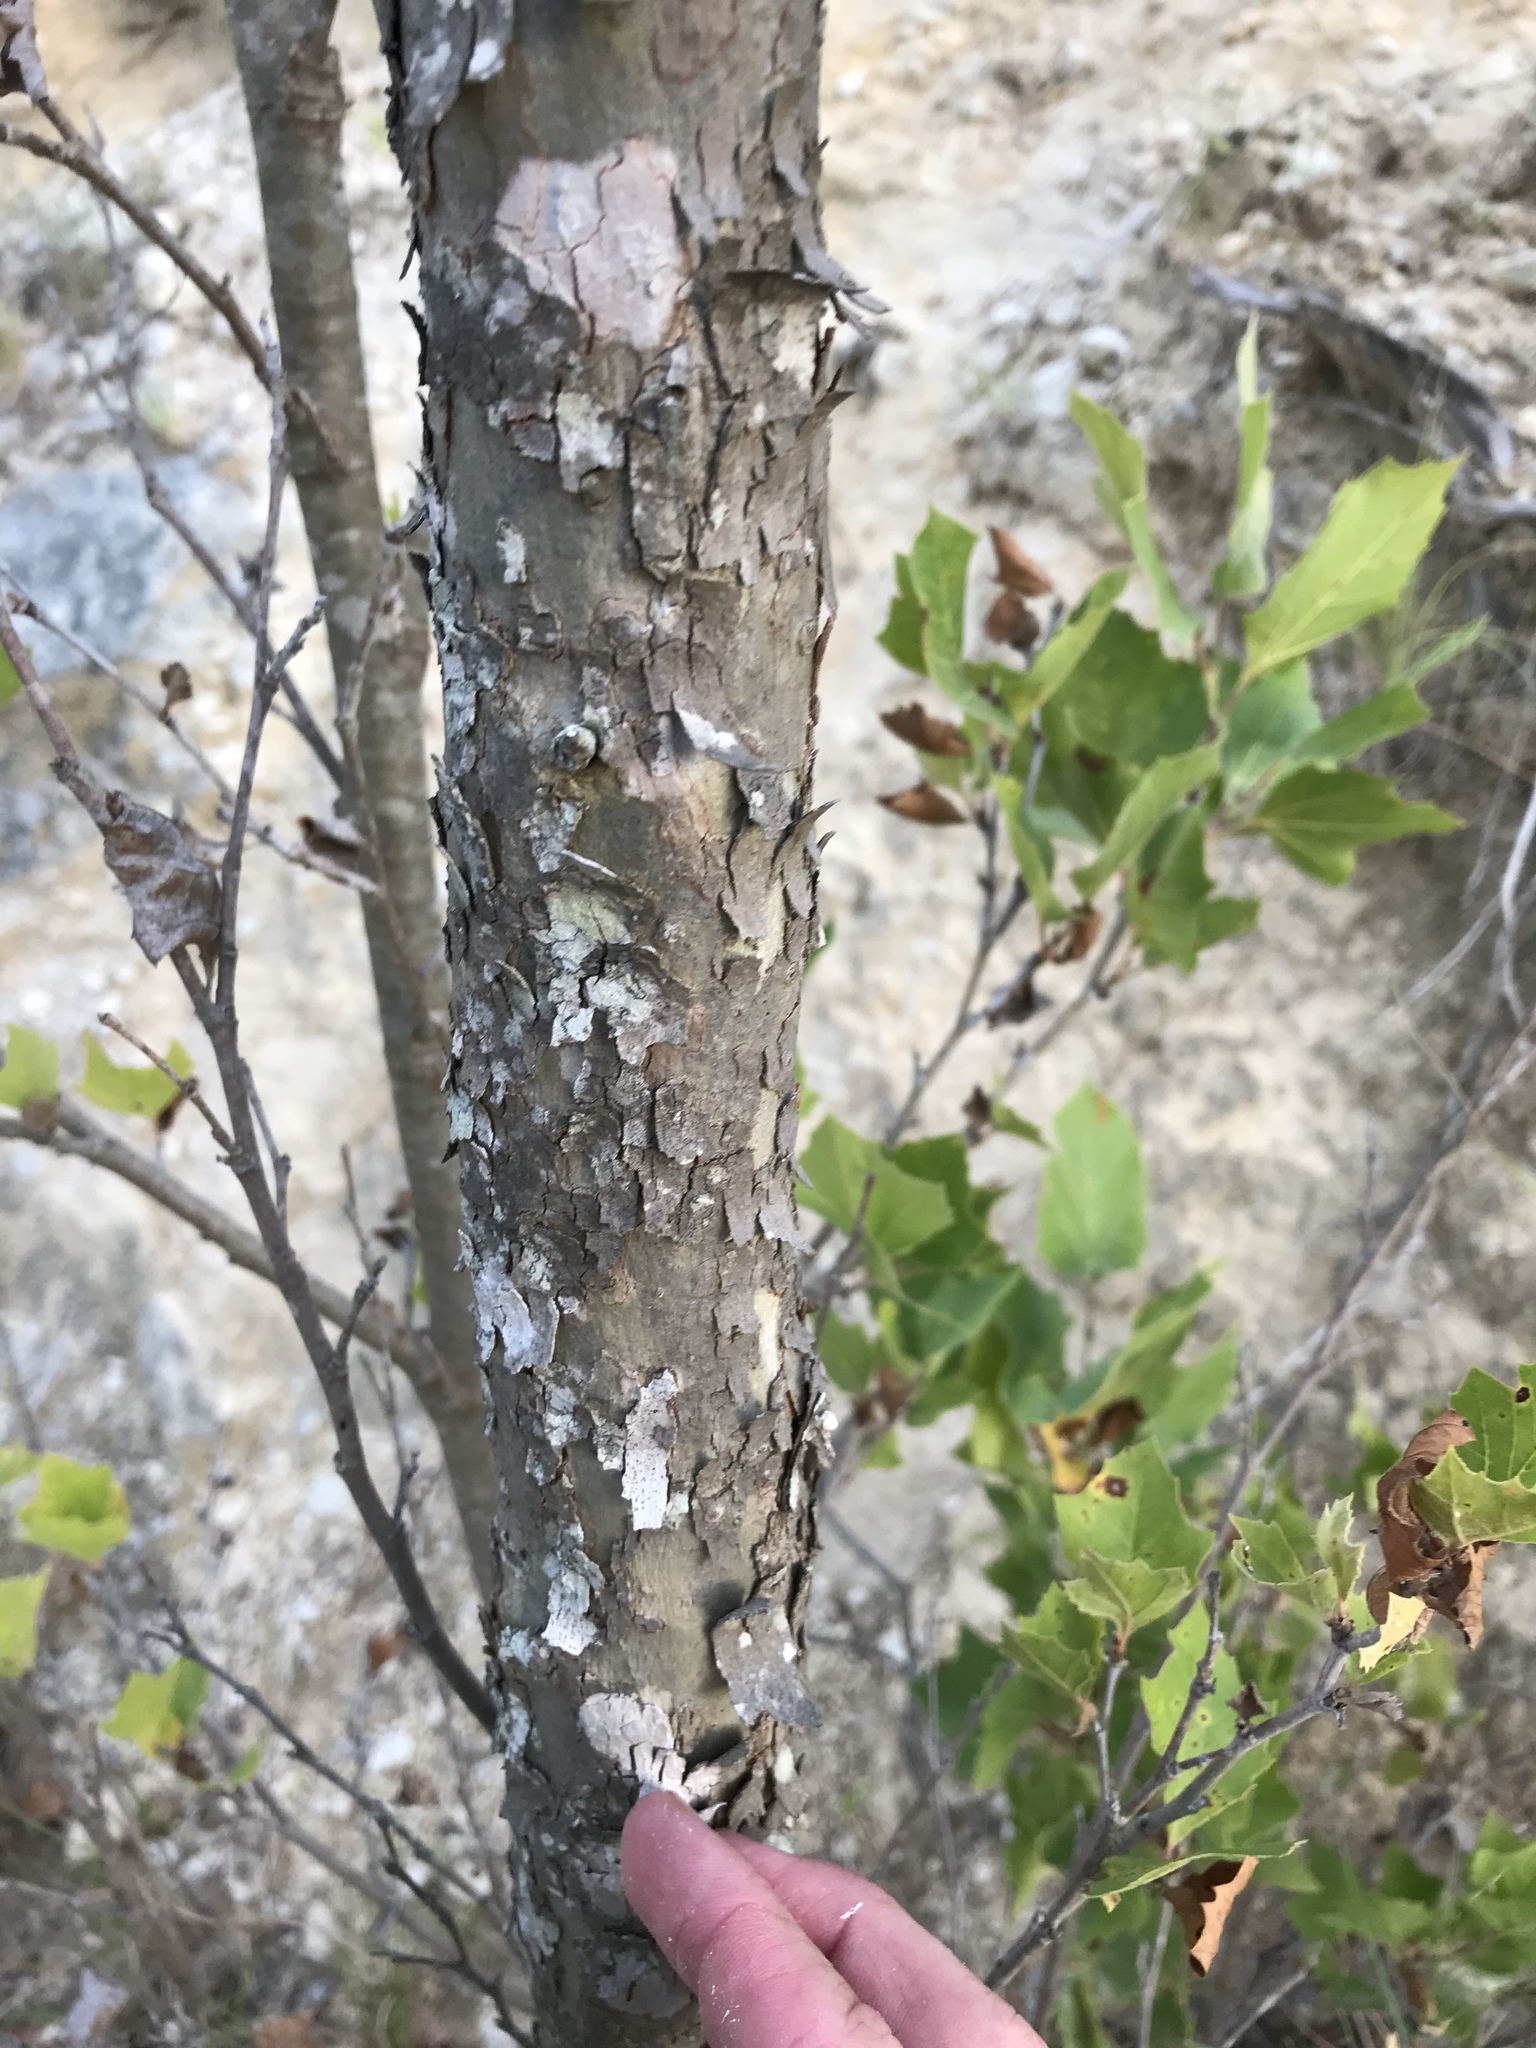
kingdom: Plantae
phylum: Tracheophyta
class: Magnoliopsida
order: Proteales
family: Platanaceae
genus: Platanus
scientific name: Platanus occidentalis
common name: American sycamore
